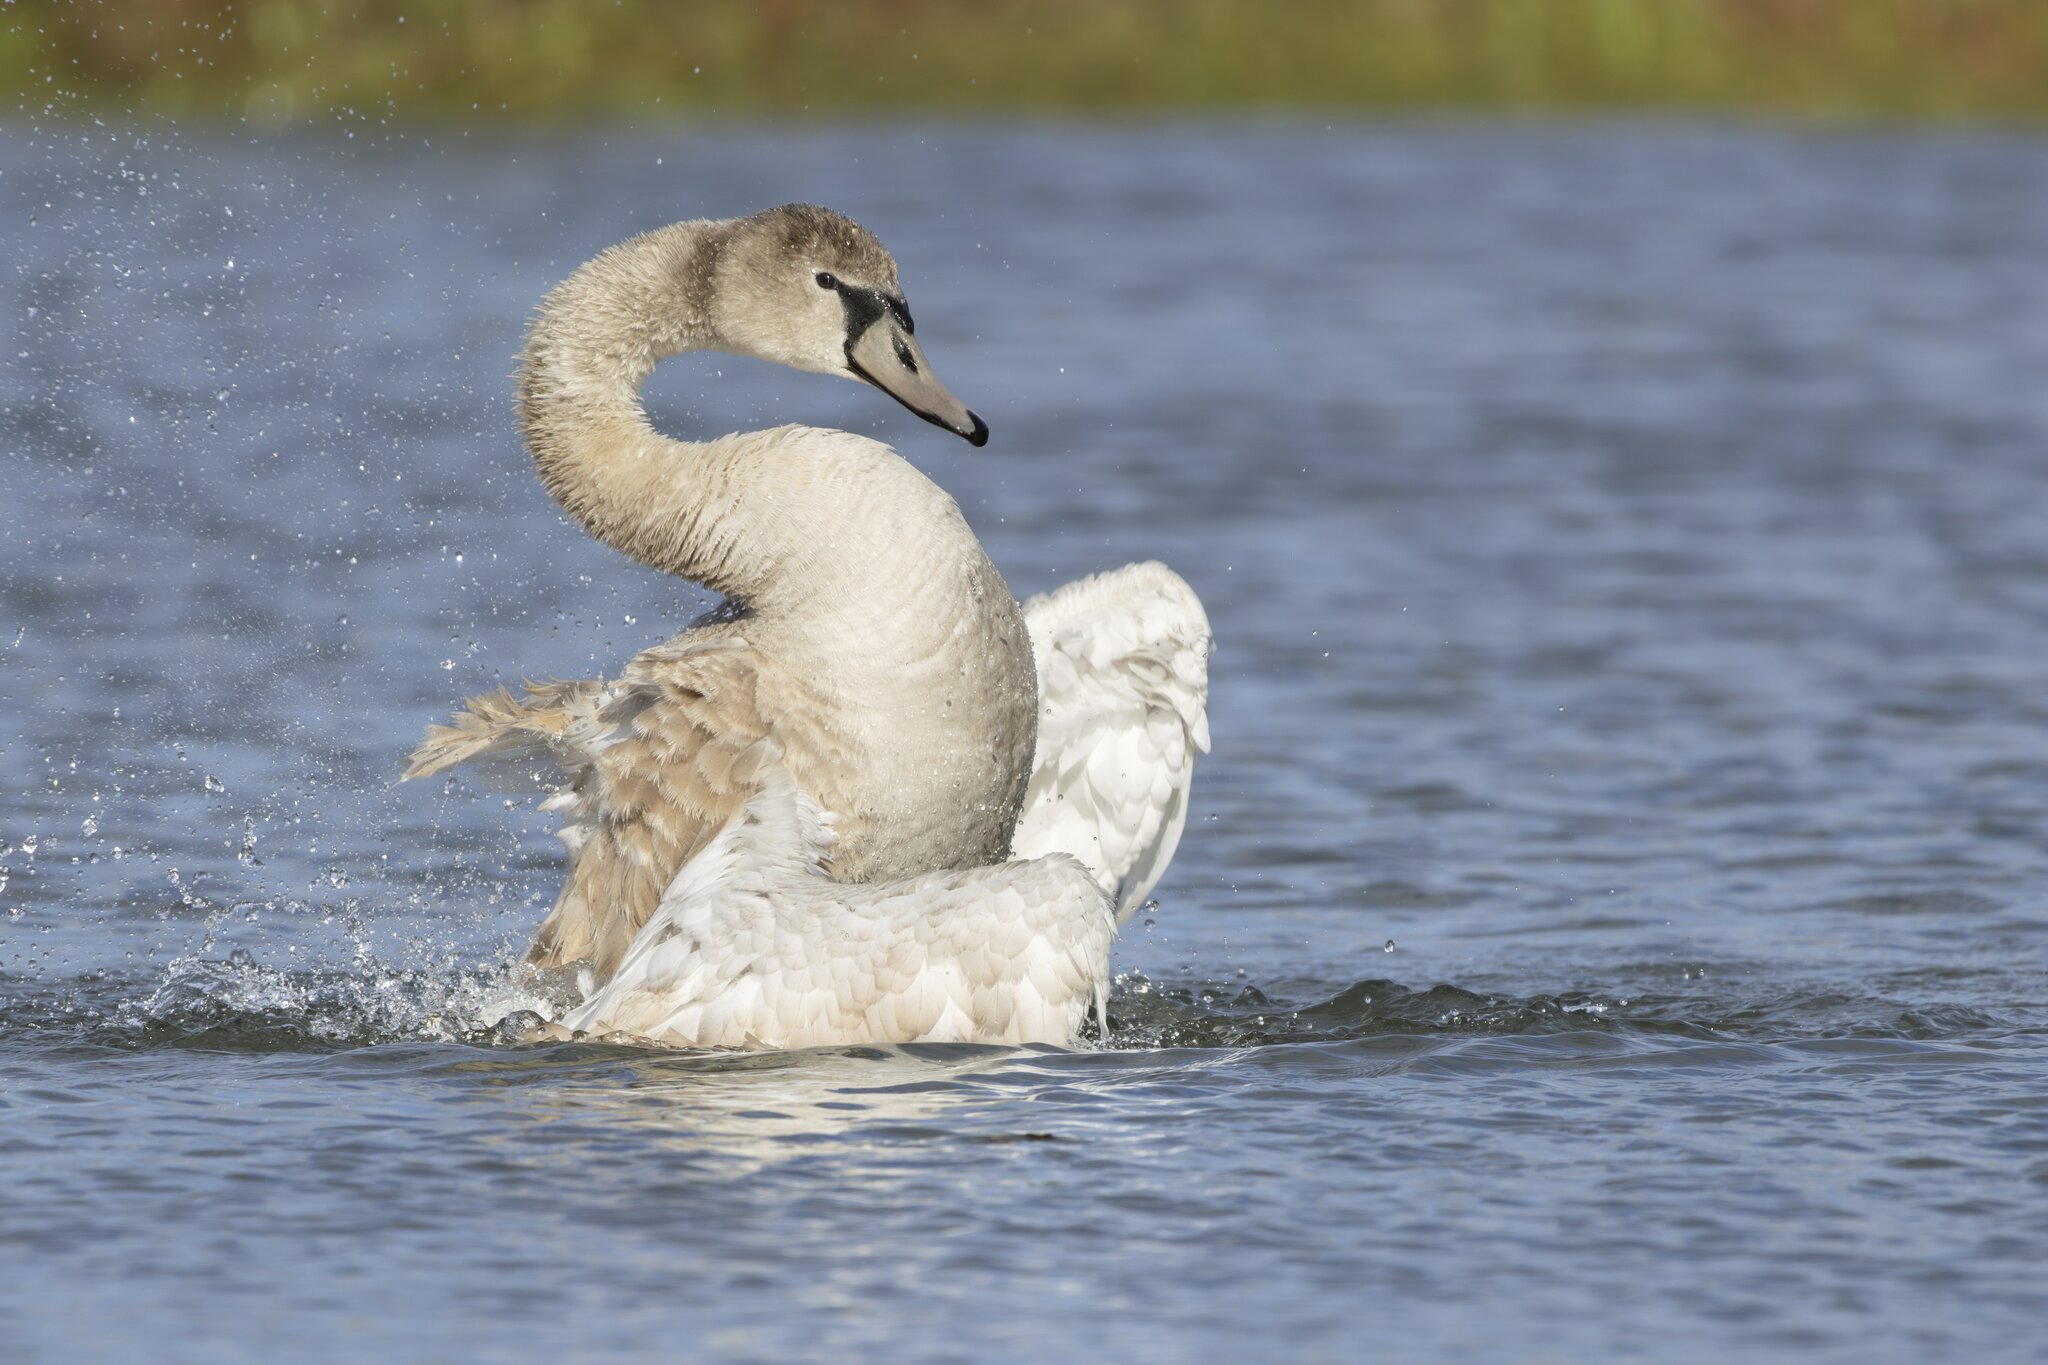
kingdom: Animalia
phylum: Chordata
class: Aves
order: Anseriformes
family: Anatidae
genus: Cygnus
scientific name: Cygnus olor
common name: Mute swan
